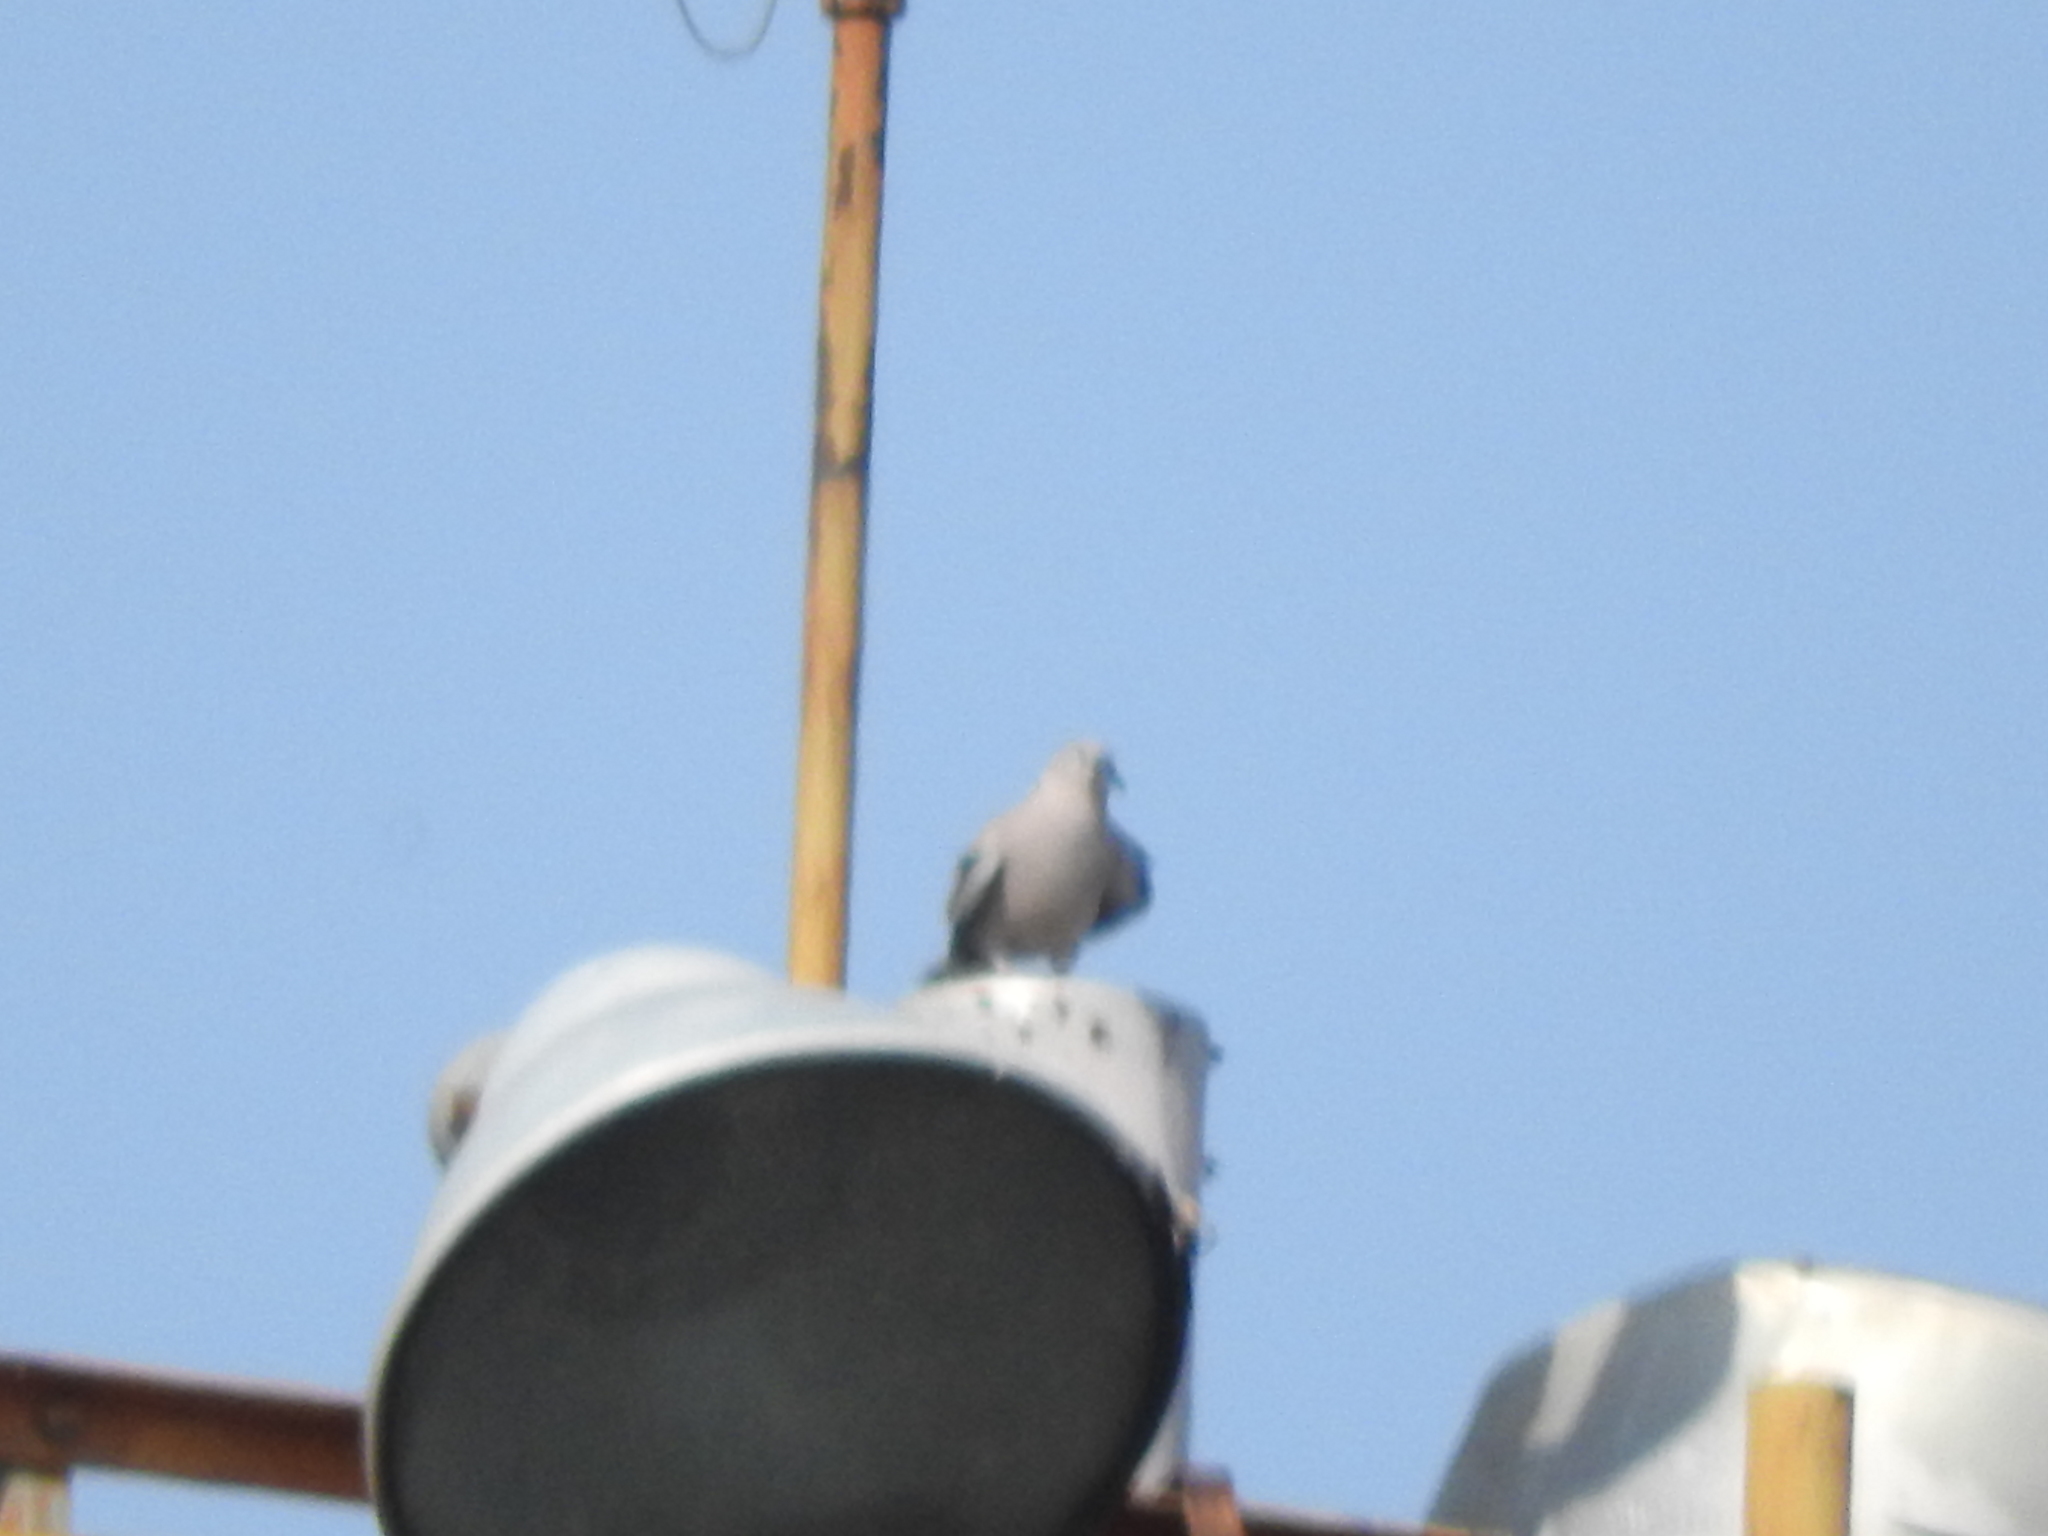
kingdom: Animalia
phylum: Chordata
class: Aves
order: Columbiformes
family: Columbidae
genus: Streptopelia
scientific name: Streptopelia decaocto
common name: Eurasian collared dove
